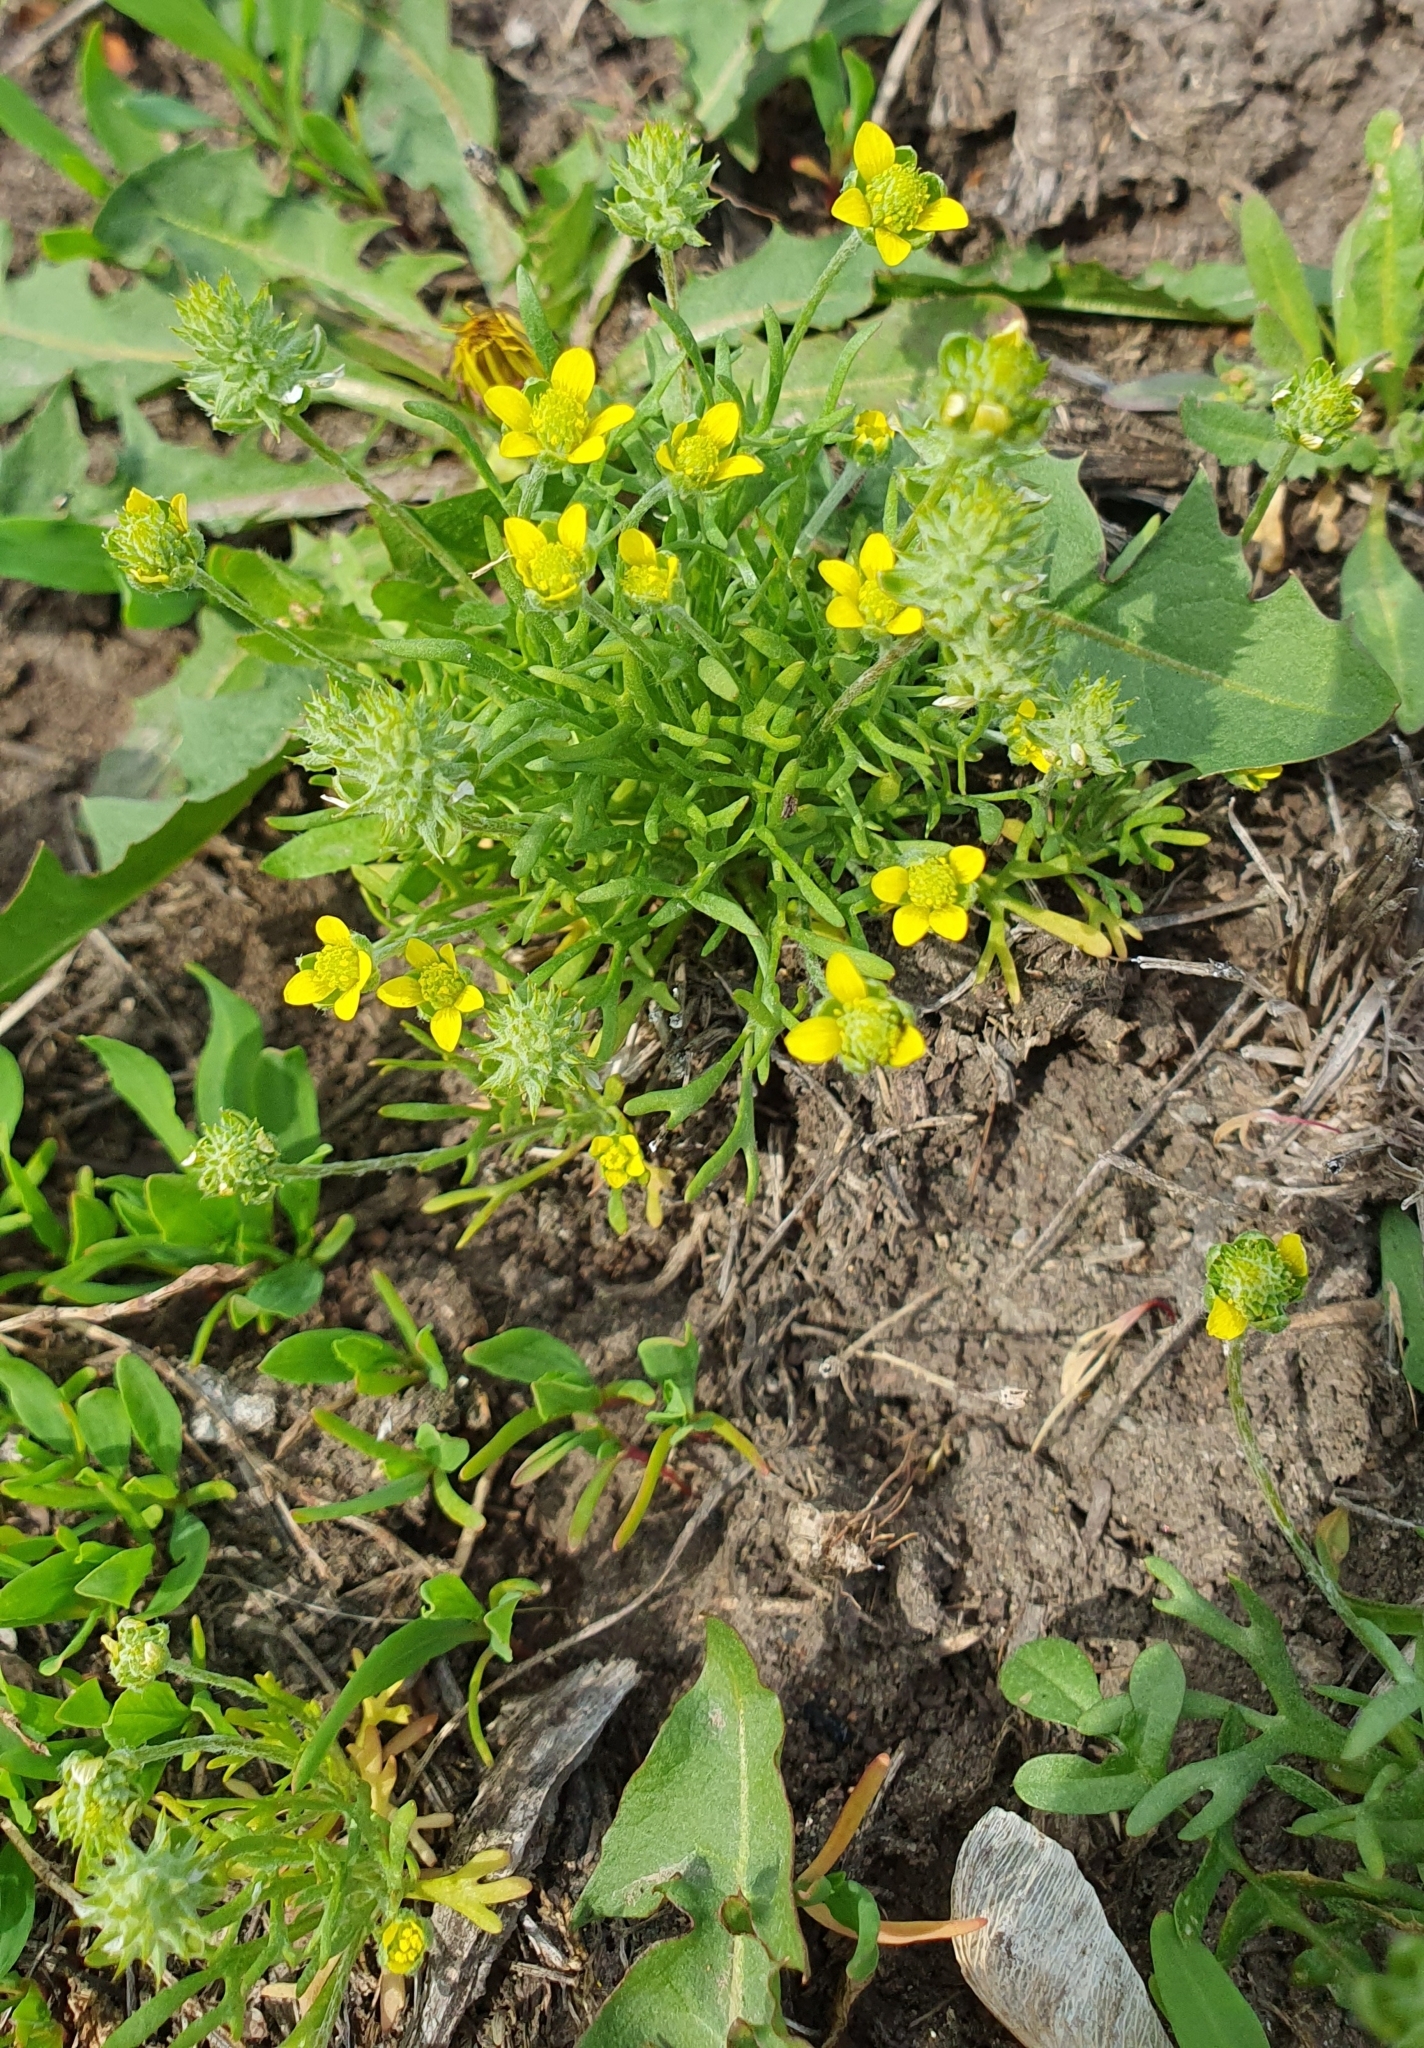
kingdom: Plantae
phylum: Tracheophyta
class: Magnoliopsida
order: Ranunculales
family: Ranunculaceae
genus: Ceratocephala
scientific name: Ceratocephala orthoceras
